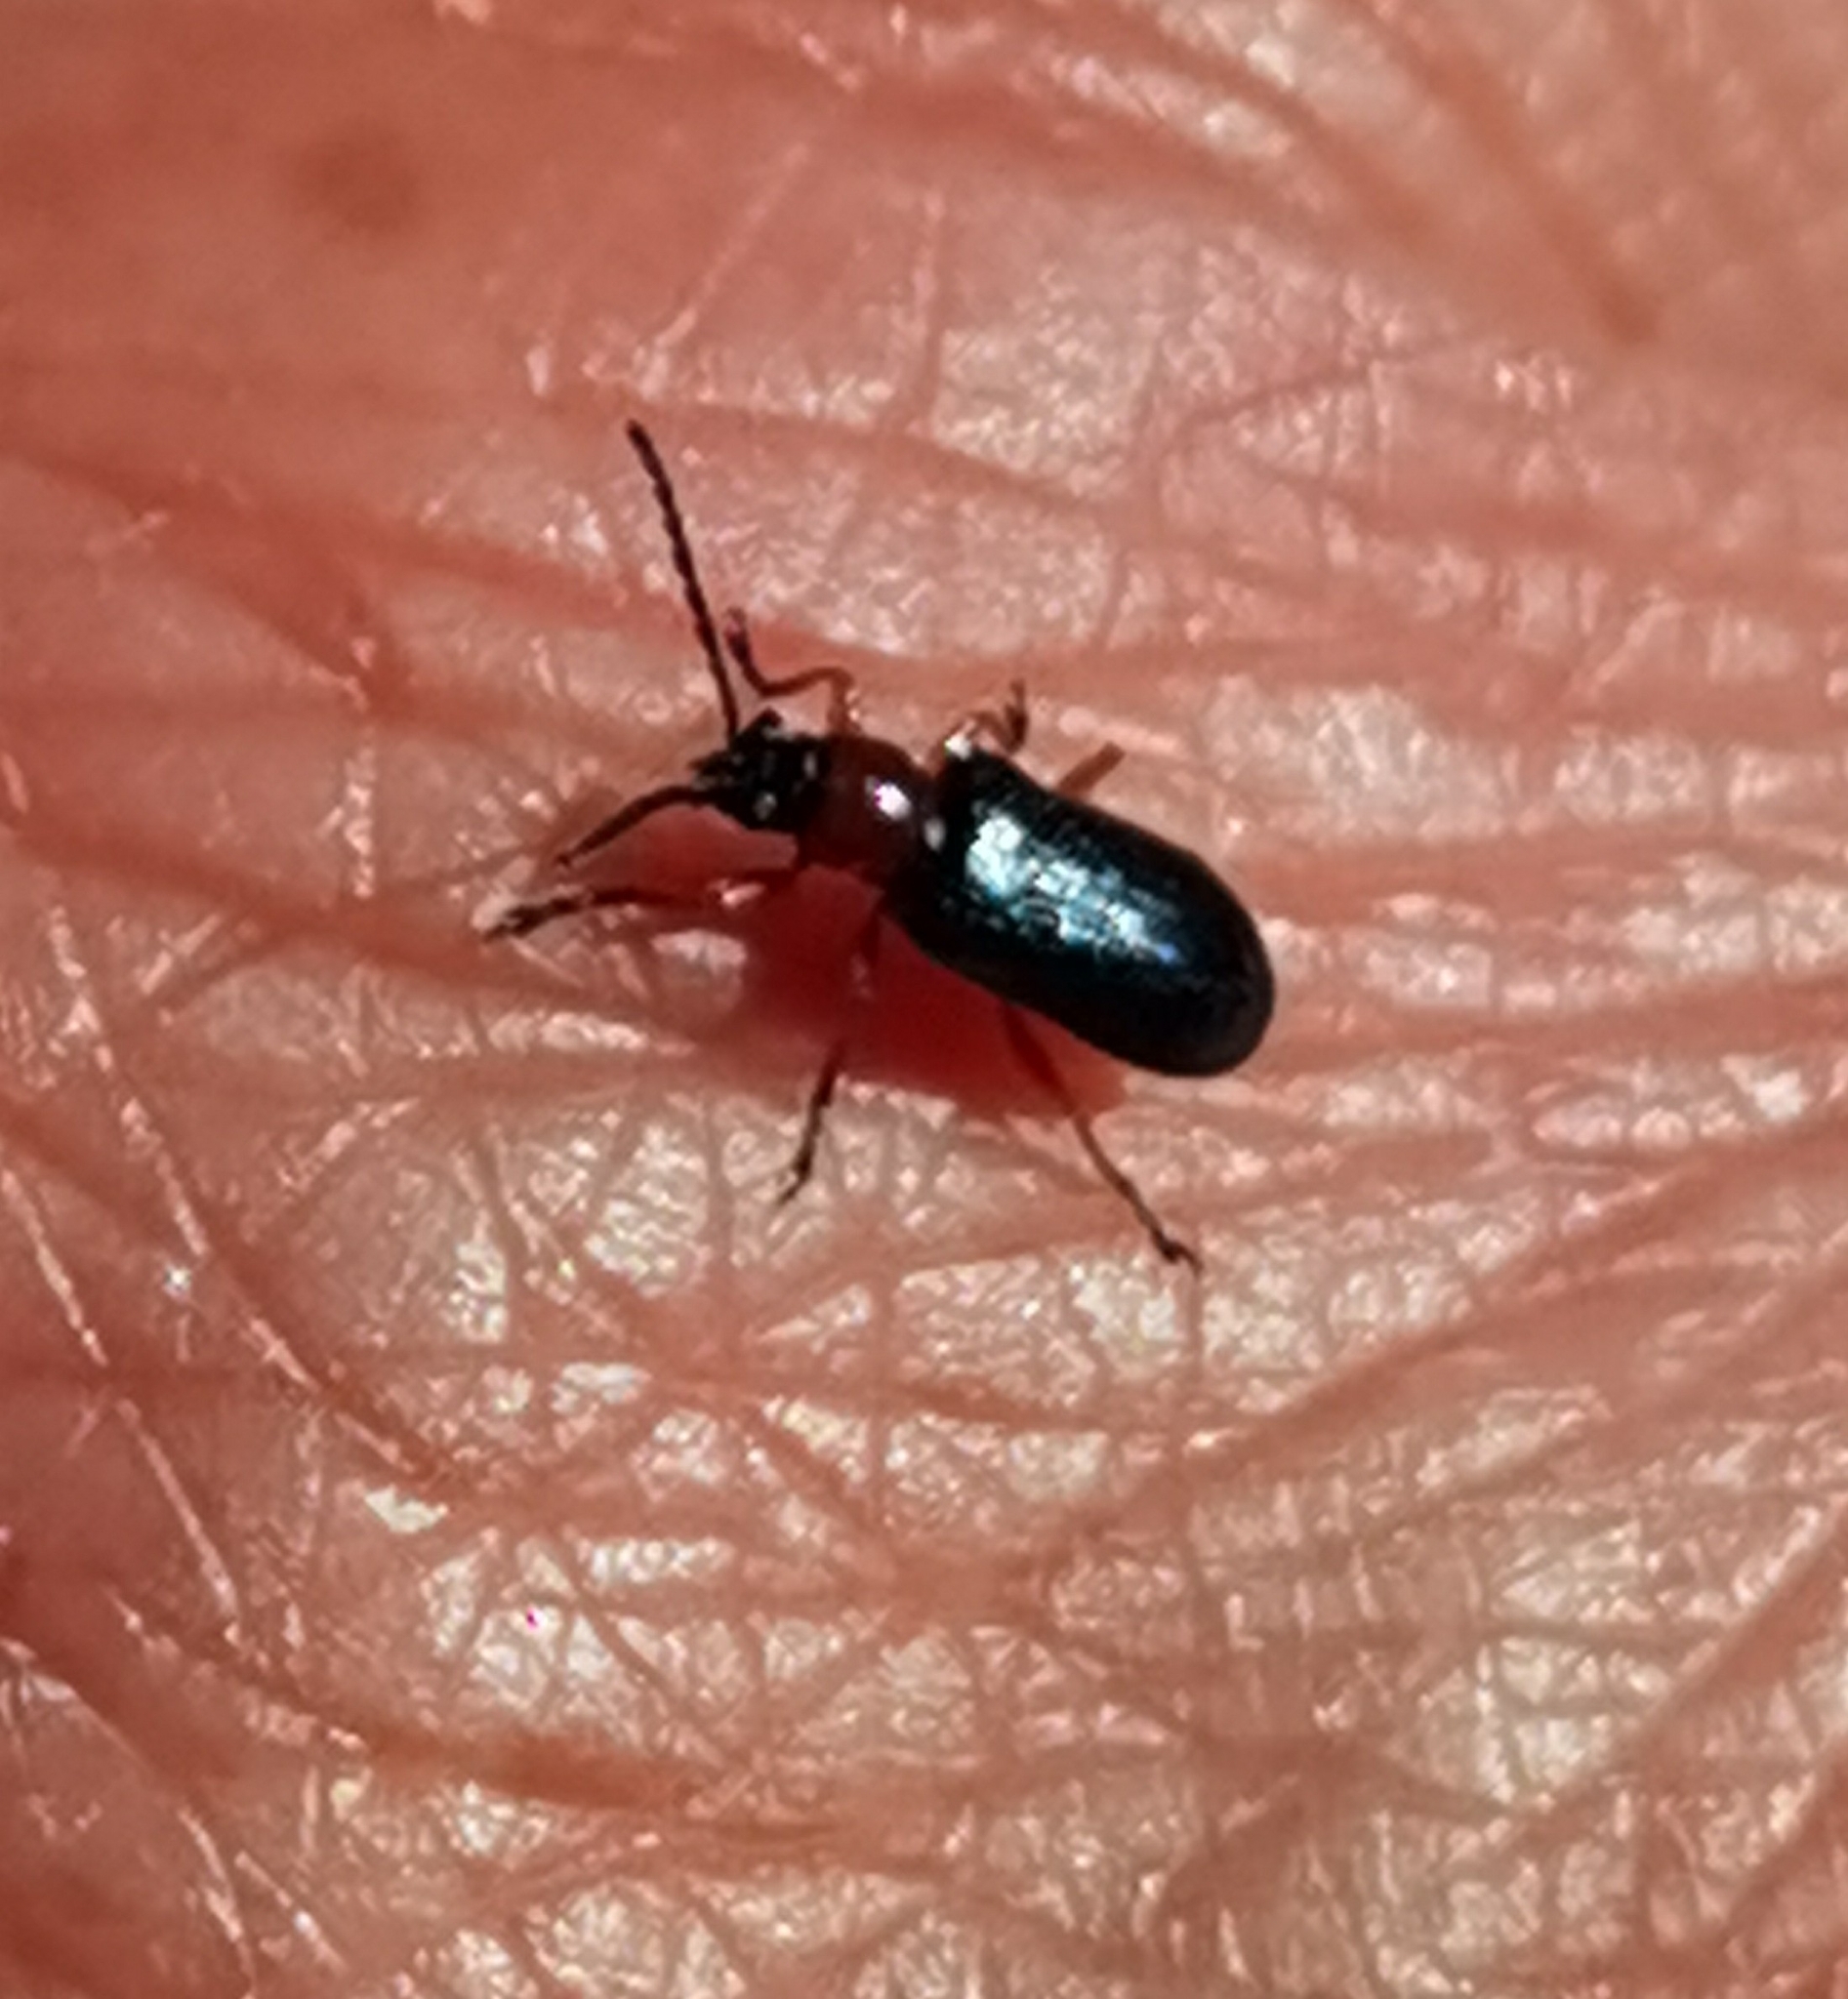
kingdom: Animalia
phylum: Arthropoda
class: Insecta
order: Coleoptera
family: Chrysomelidae
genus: Oulema
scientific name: Oulema
